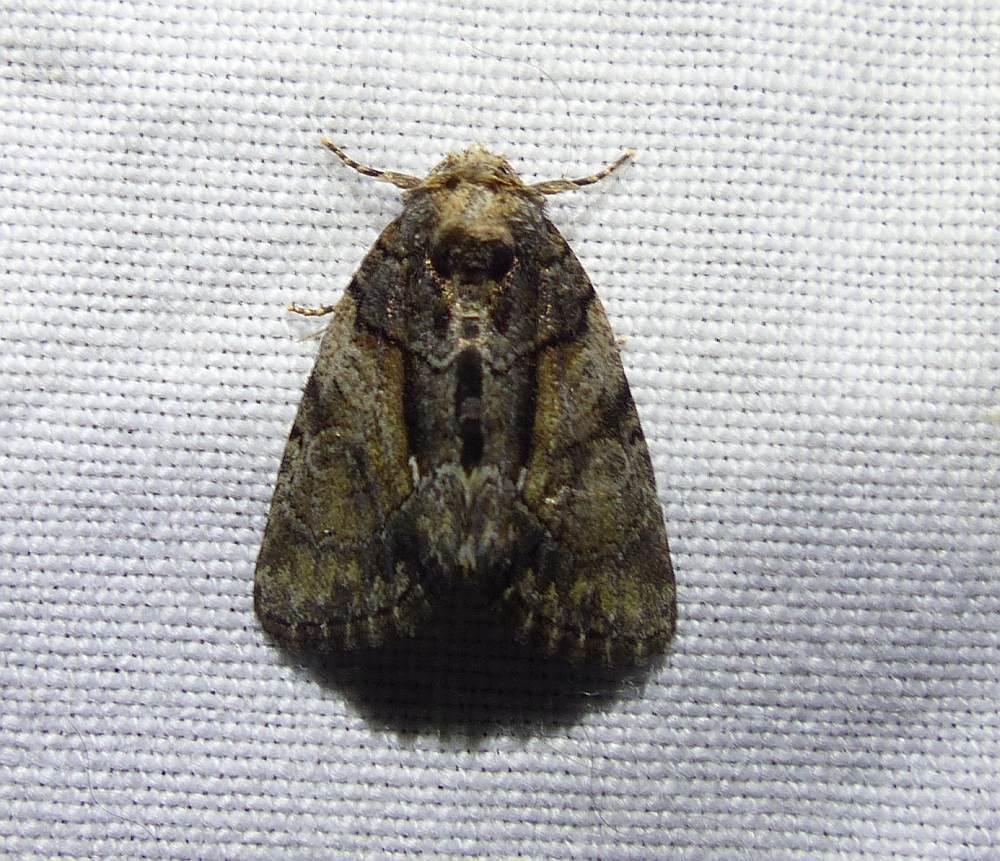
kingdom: Animalia
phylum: Arthropoda
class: Insecta
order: Lepidoptera
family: Noctuidae
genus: Chytonix
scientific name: Chytonix palliatricula
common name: Cloaked marvel
